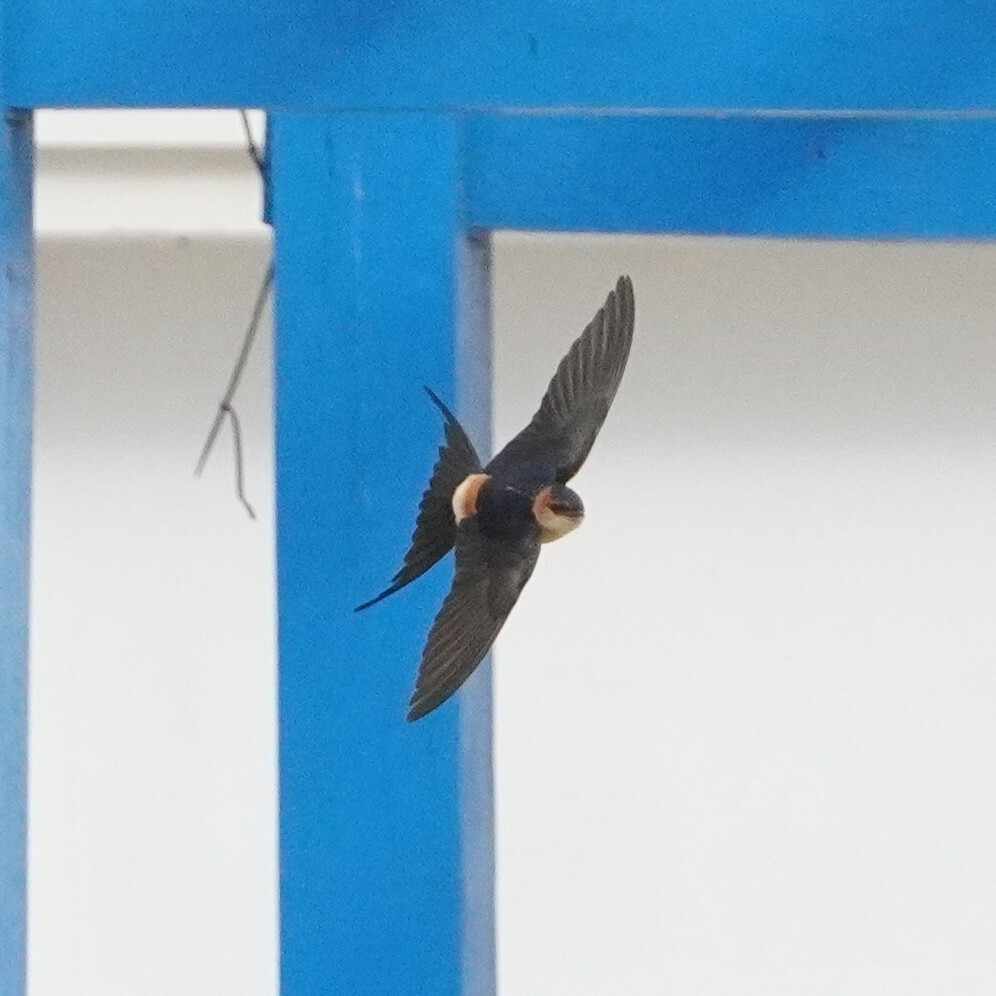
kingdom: Animalia
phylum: Chordata
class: Aves
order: Passeriformes
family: Hirundinidae
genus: Cecropis
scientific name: Cecropis daurica
